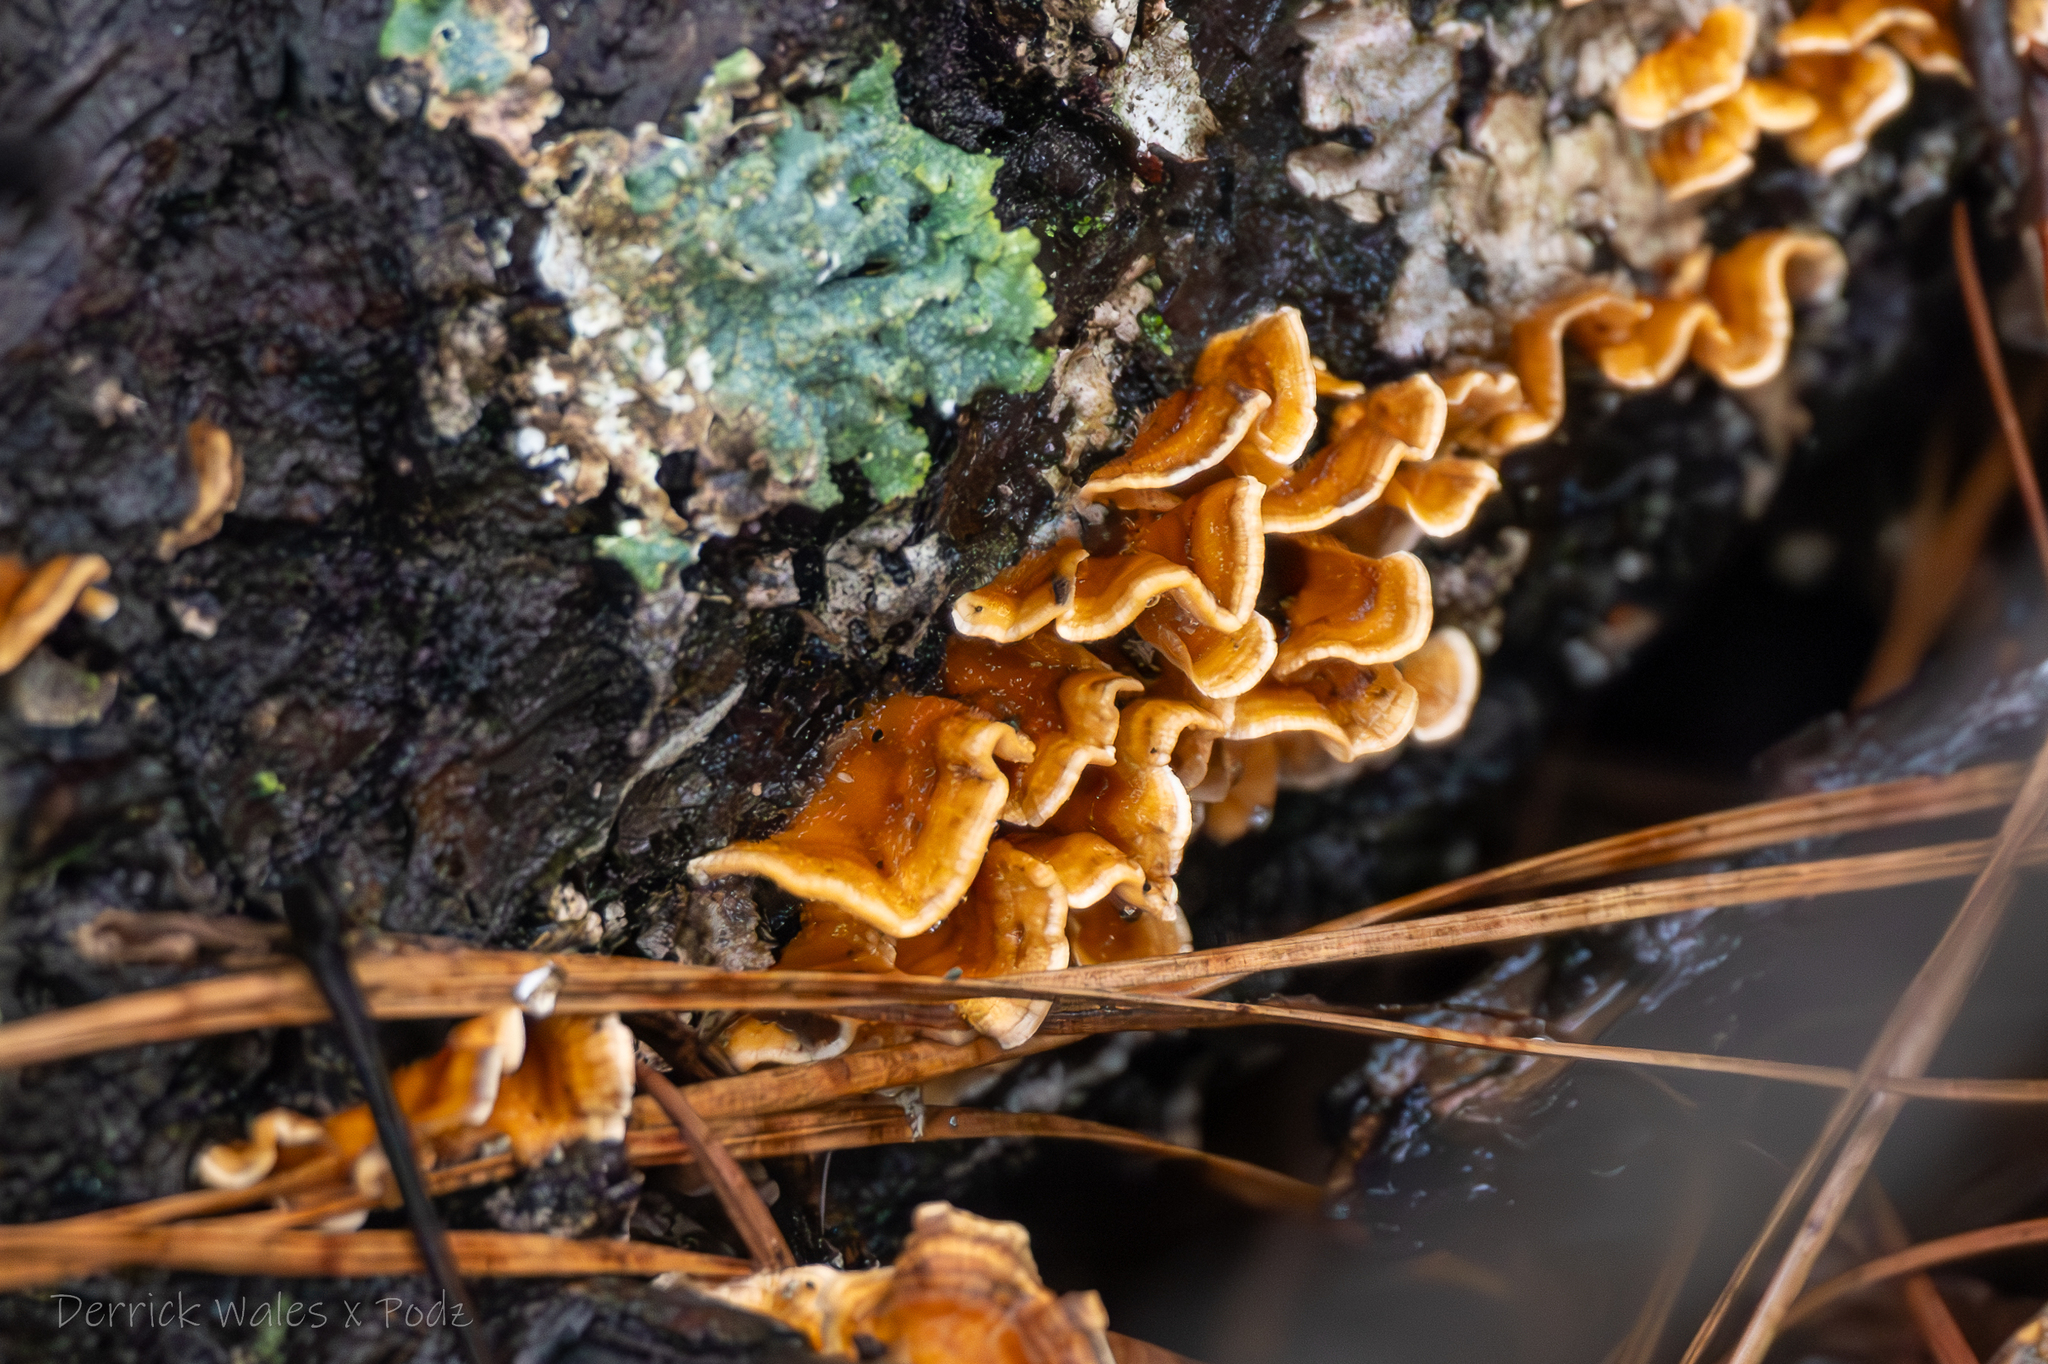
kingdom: Fungi
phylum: Basidiomycota
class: Agaricomycetes
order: Russulales
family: Stereaceae
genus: Stereum
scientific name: Stereum complicatum
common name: Crowded parchment
